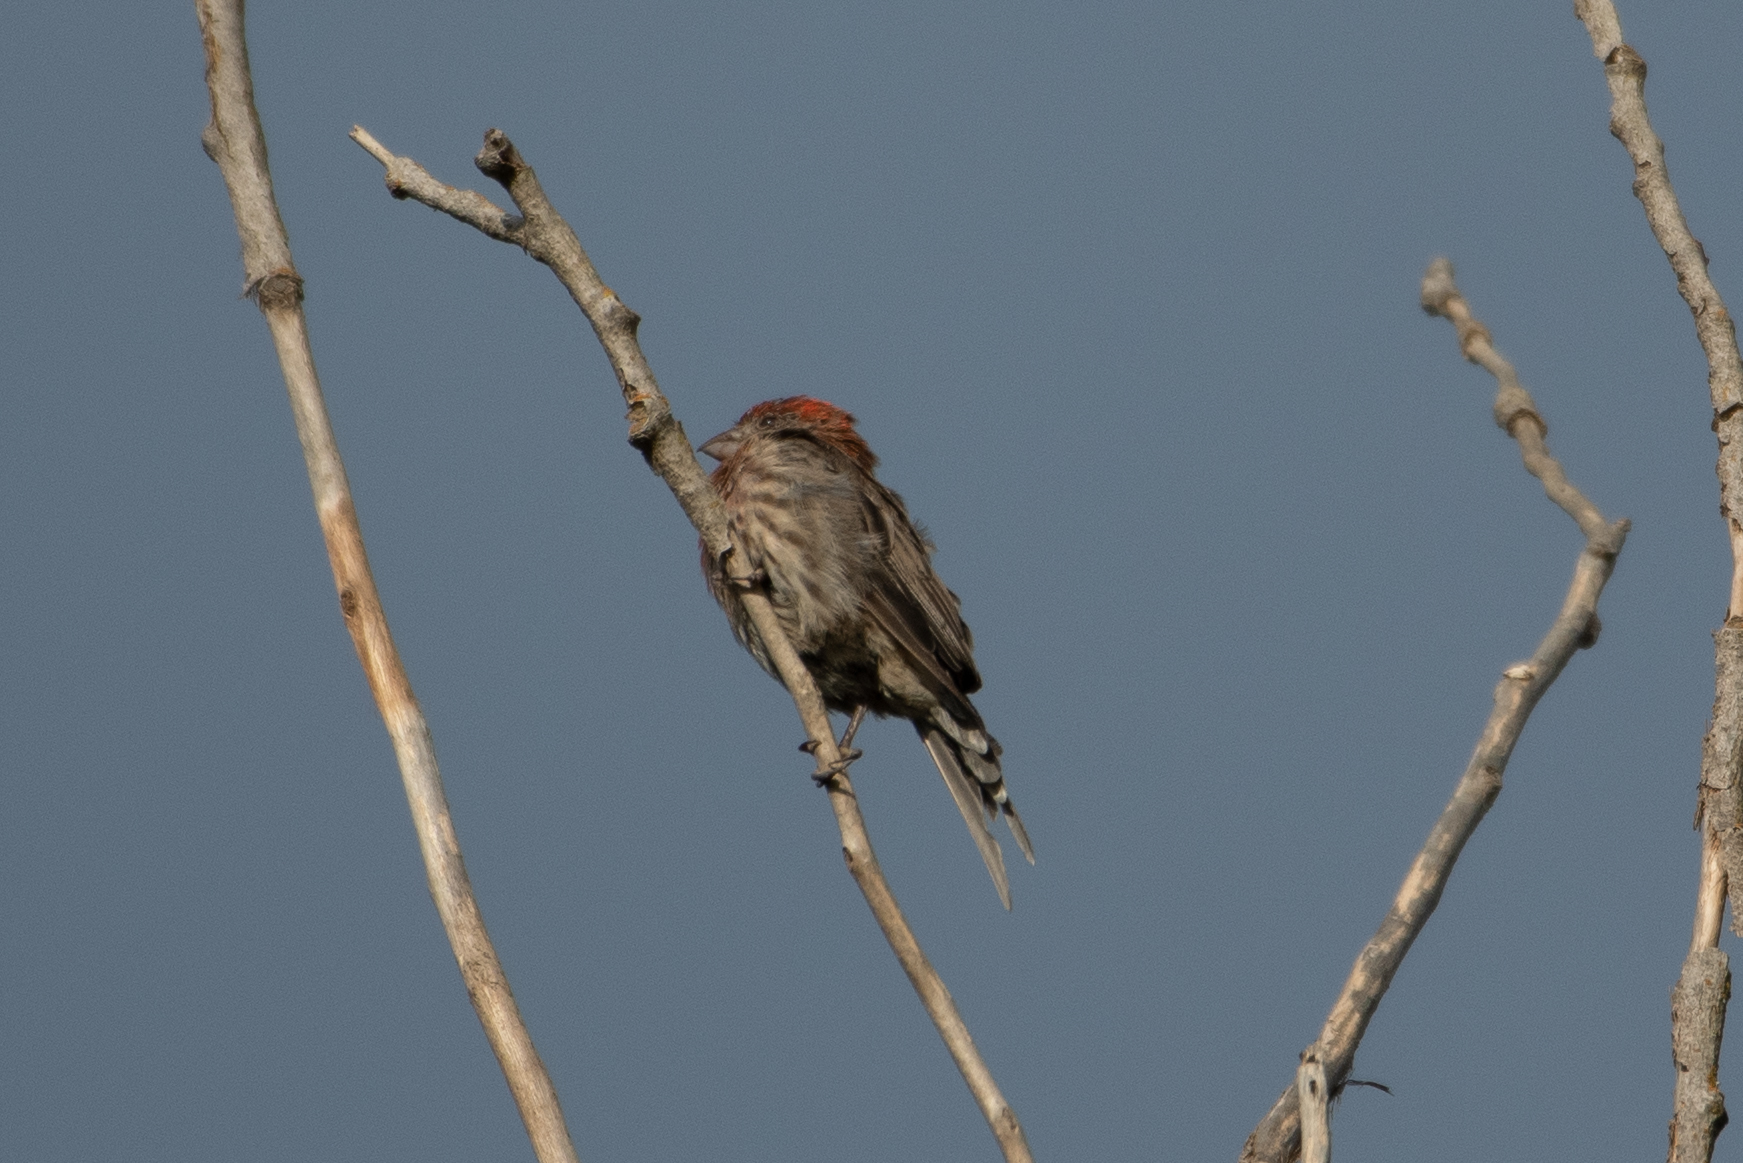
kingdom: Animalia
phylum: Chordata
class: Aves
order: Passeriformes
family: Fringillidae
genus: Haemorhous
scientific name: Haemorhous mexicanus
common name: House finch
